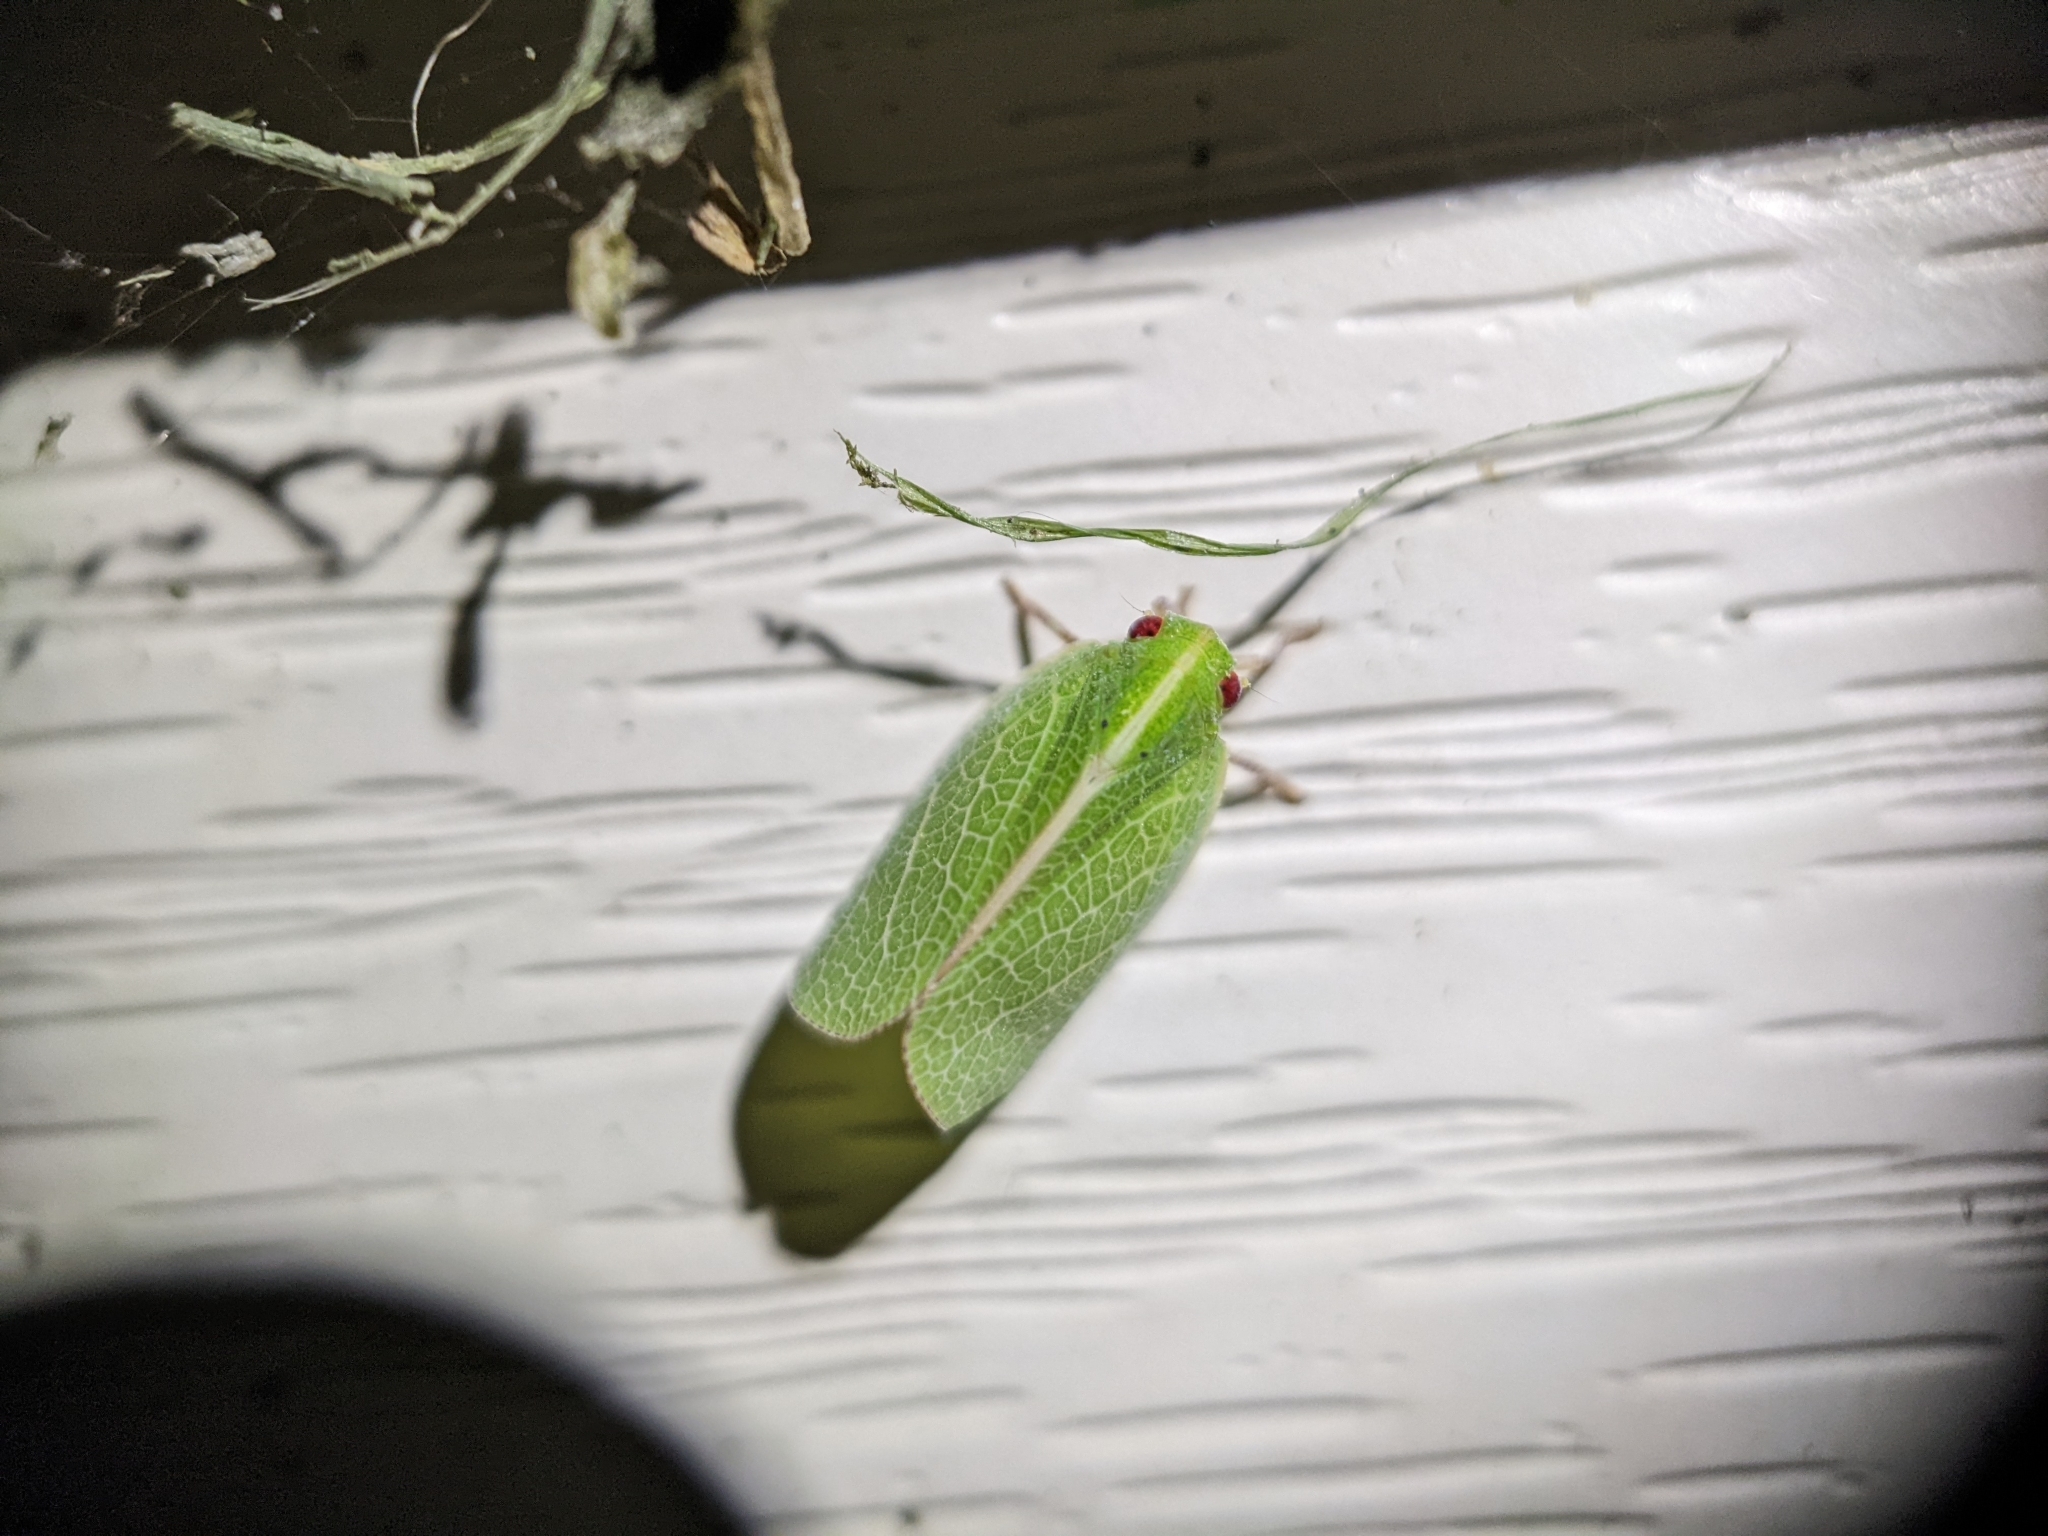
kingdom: Animalia
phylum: Arthropoda
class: Insecta
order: Hemiptera
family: Acanaloniidae
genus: Acanalonia
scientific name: Acanalonia servillei
